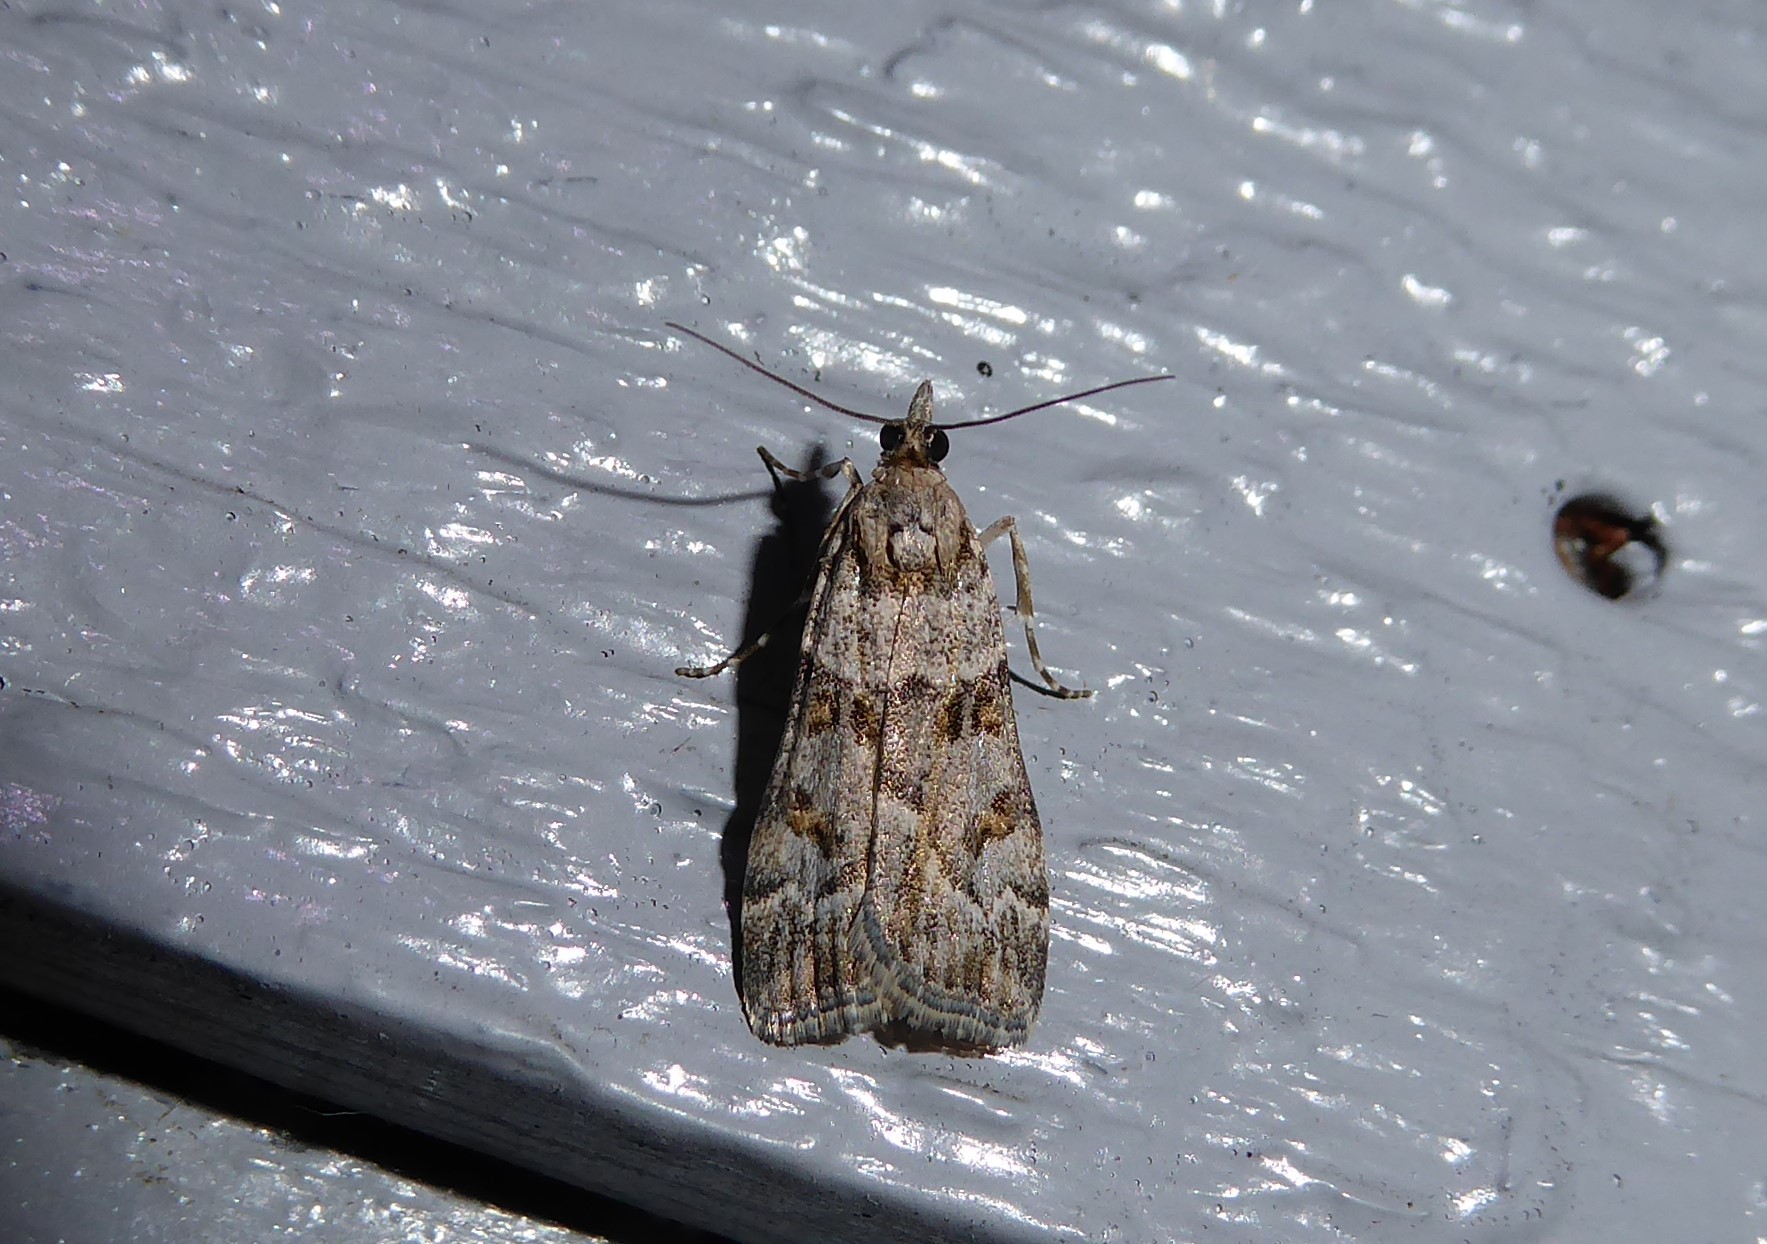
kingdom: Animalia
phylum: Arthropoda
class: Insecta
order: Lepidoptera
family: Crambidae
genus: Eudonia
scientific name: Eudonia diphtheralis
